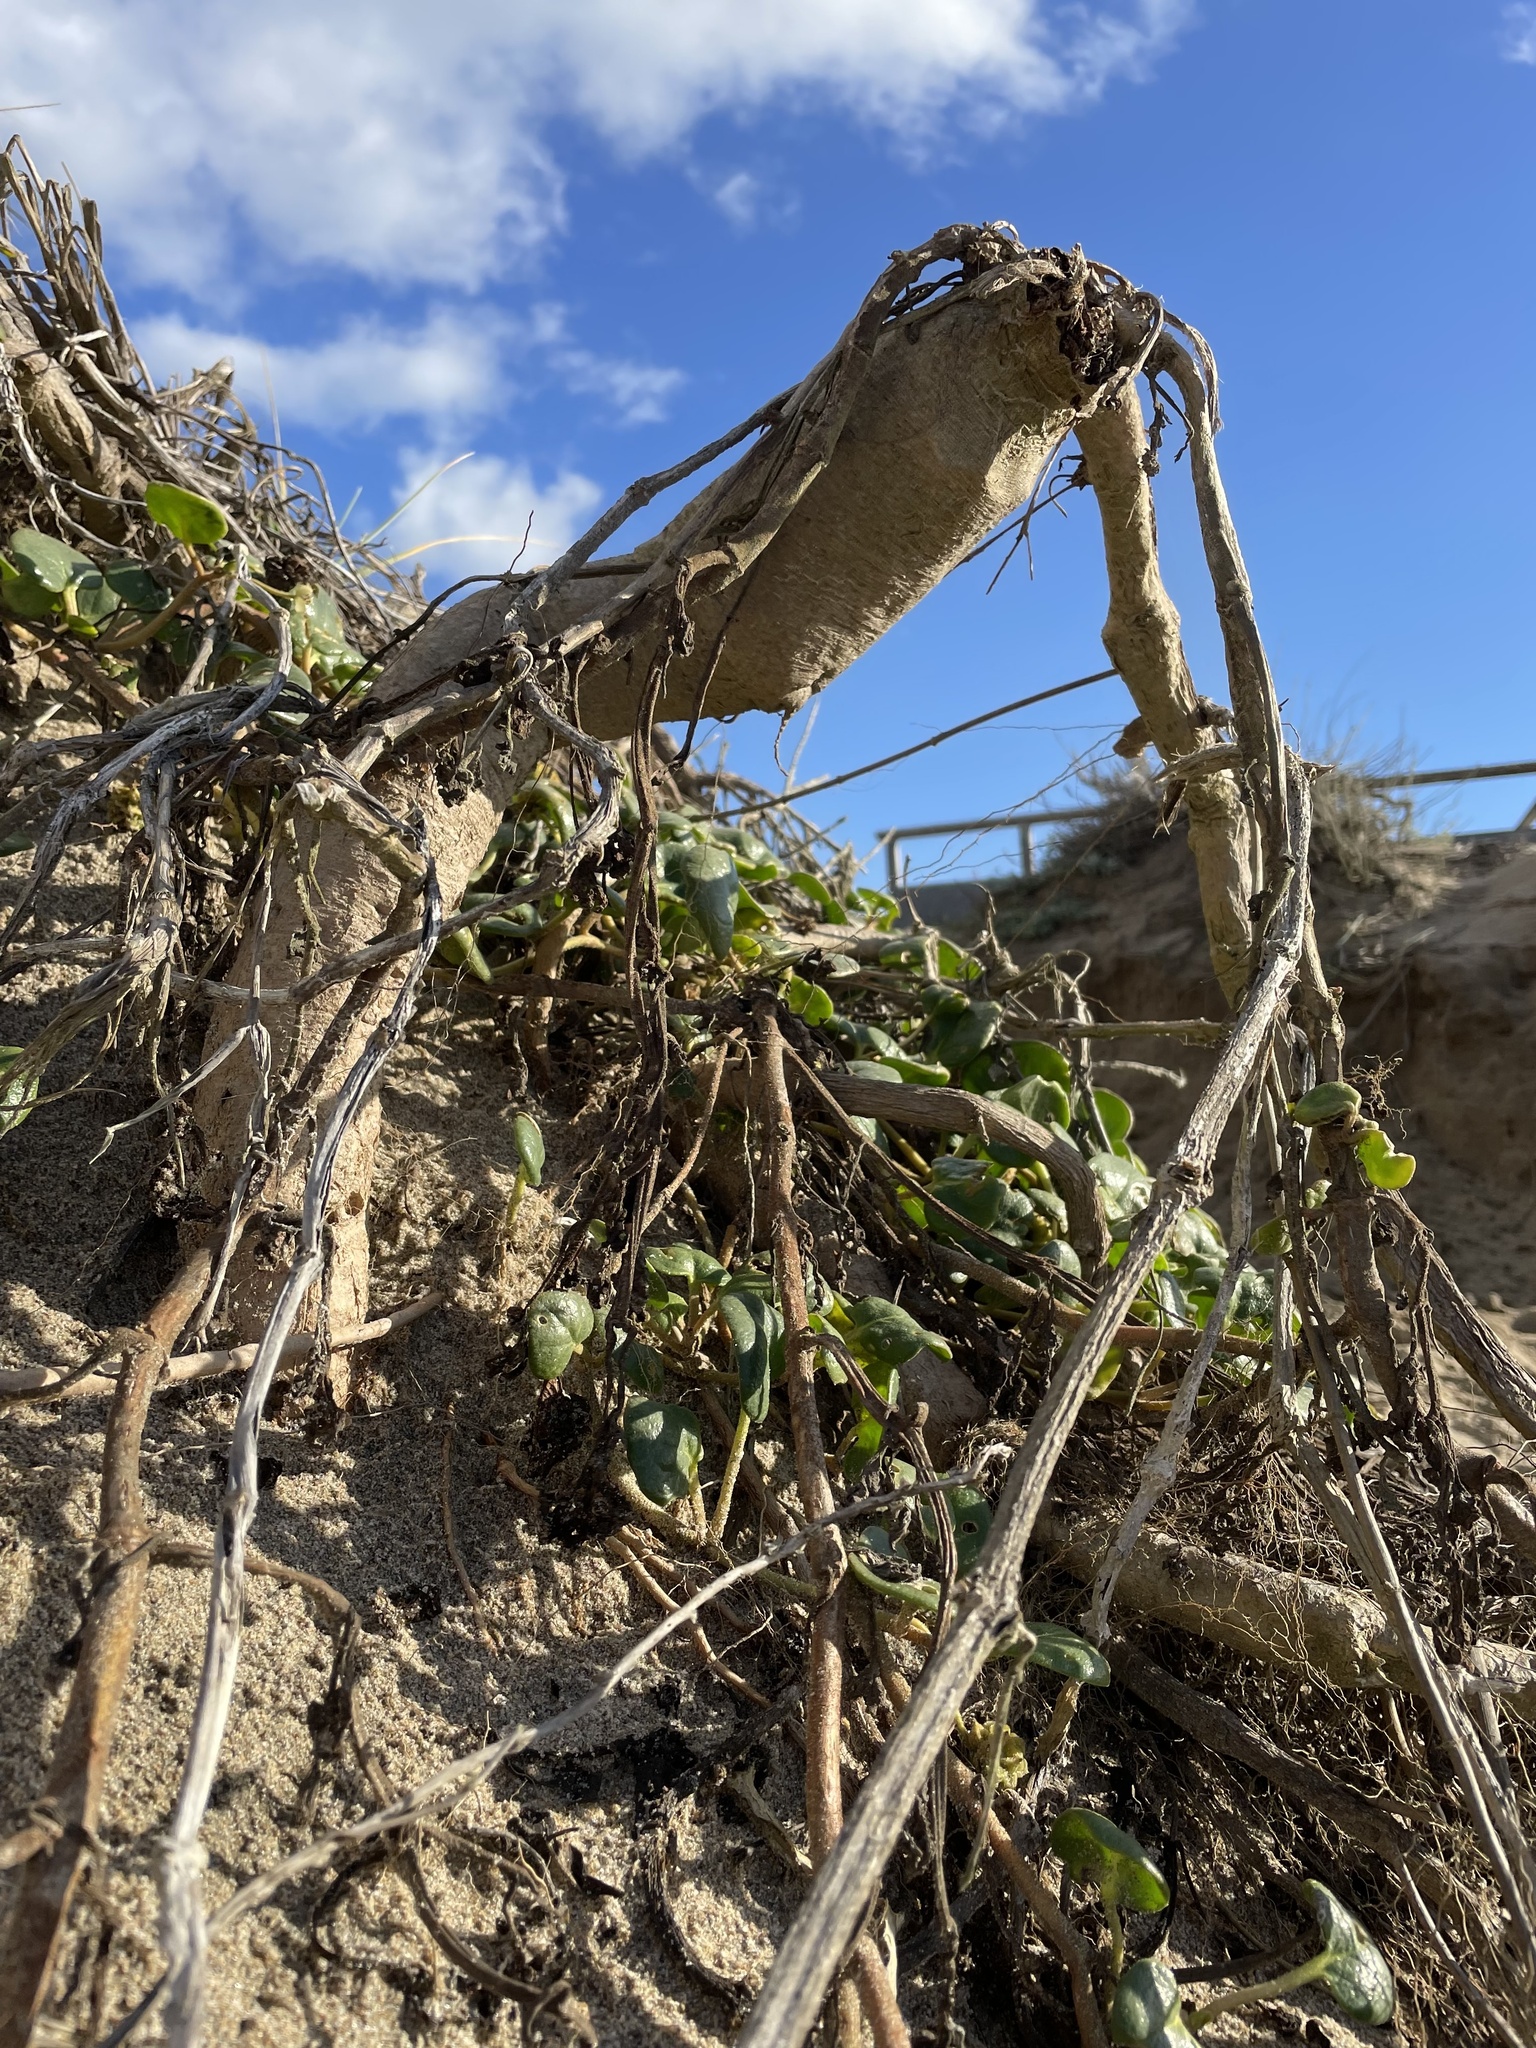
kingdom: Plantae
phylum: Tracheophyta
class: Magnoliopsida
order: Caryophyllales
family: Nyctaginaceae
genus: Abronia
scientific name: Abronia latifolia
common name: Yellow sand-verbena
